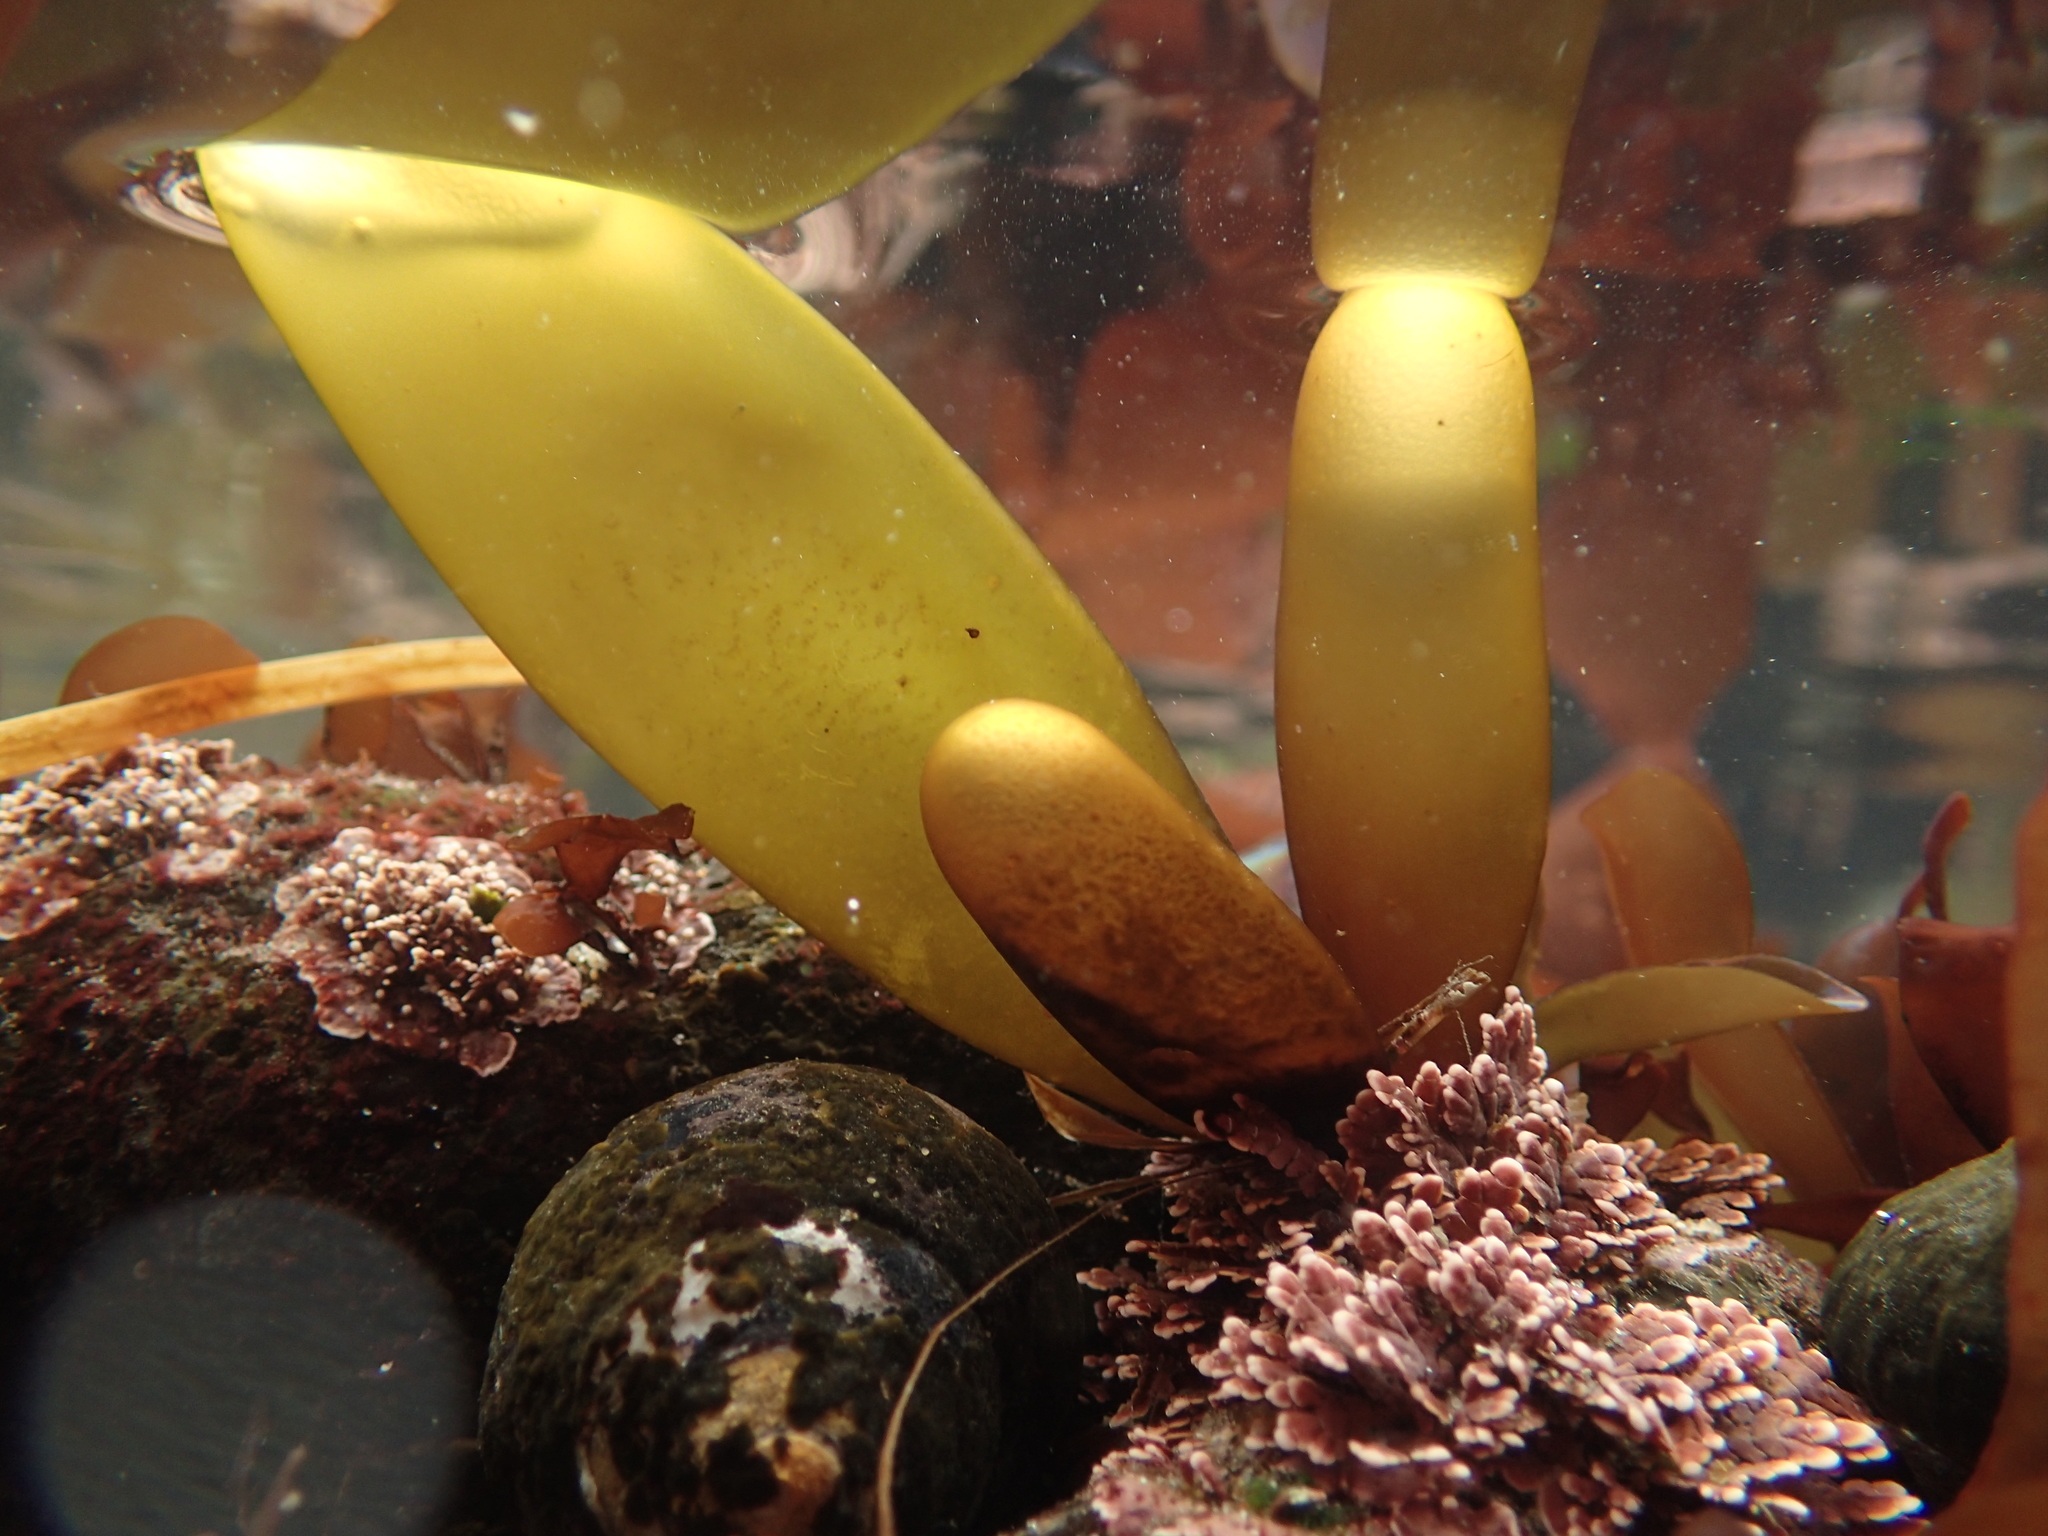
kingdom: Plantae
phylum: Rhodophyta
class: Florideophyceae
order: Palmariales
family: Palmariaceae
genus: Halosaccion
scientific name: Halosaccion glandiforme
